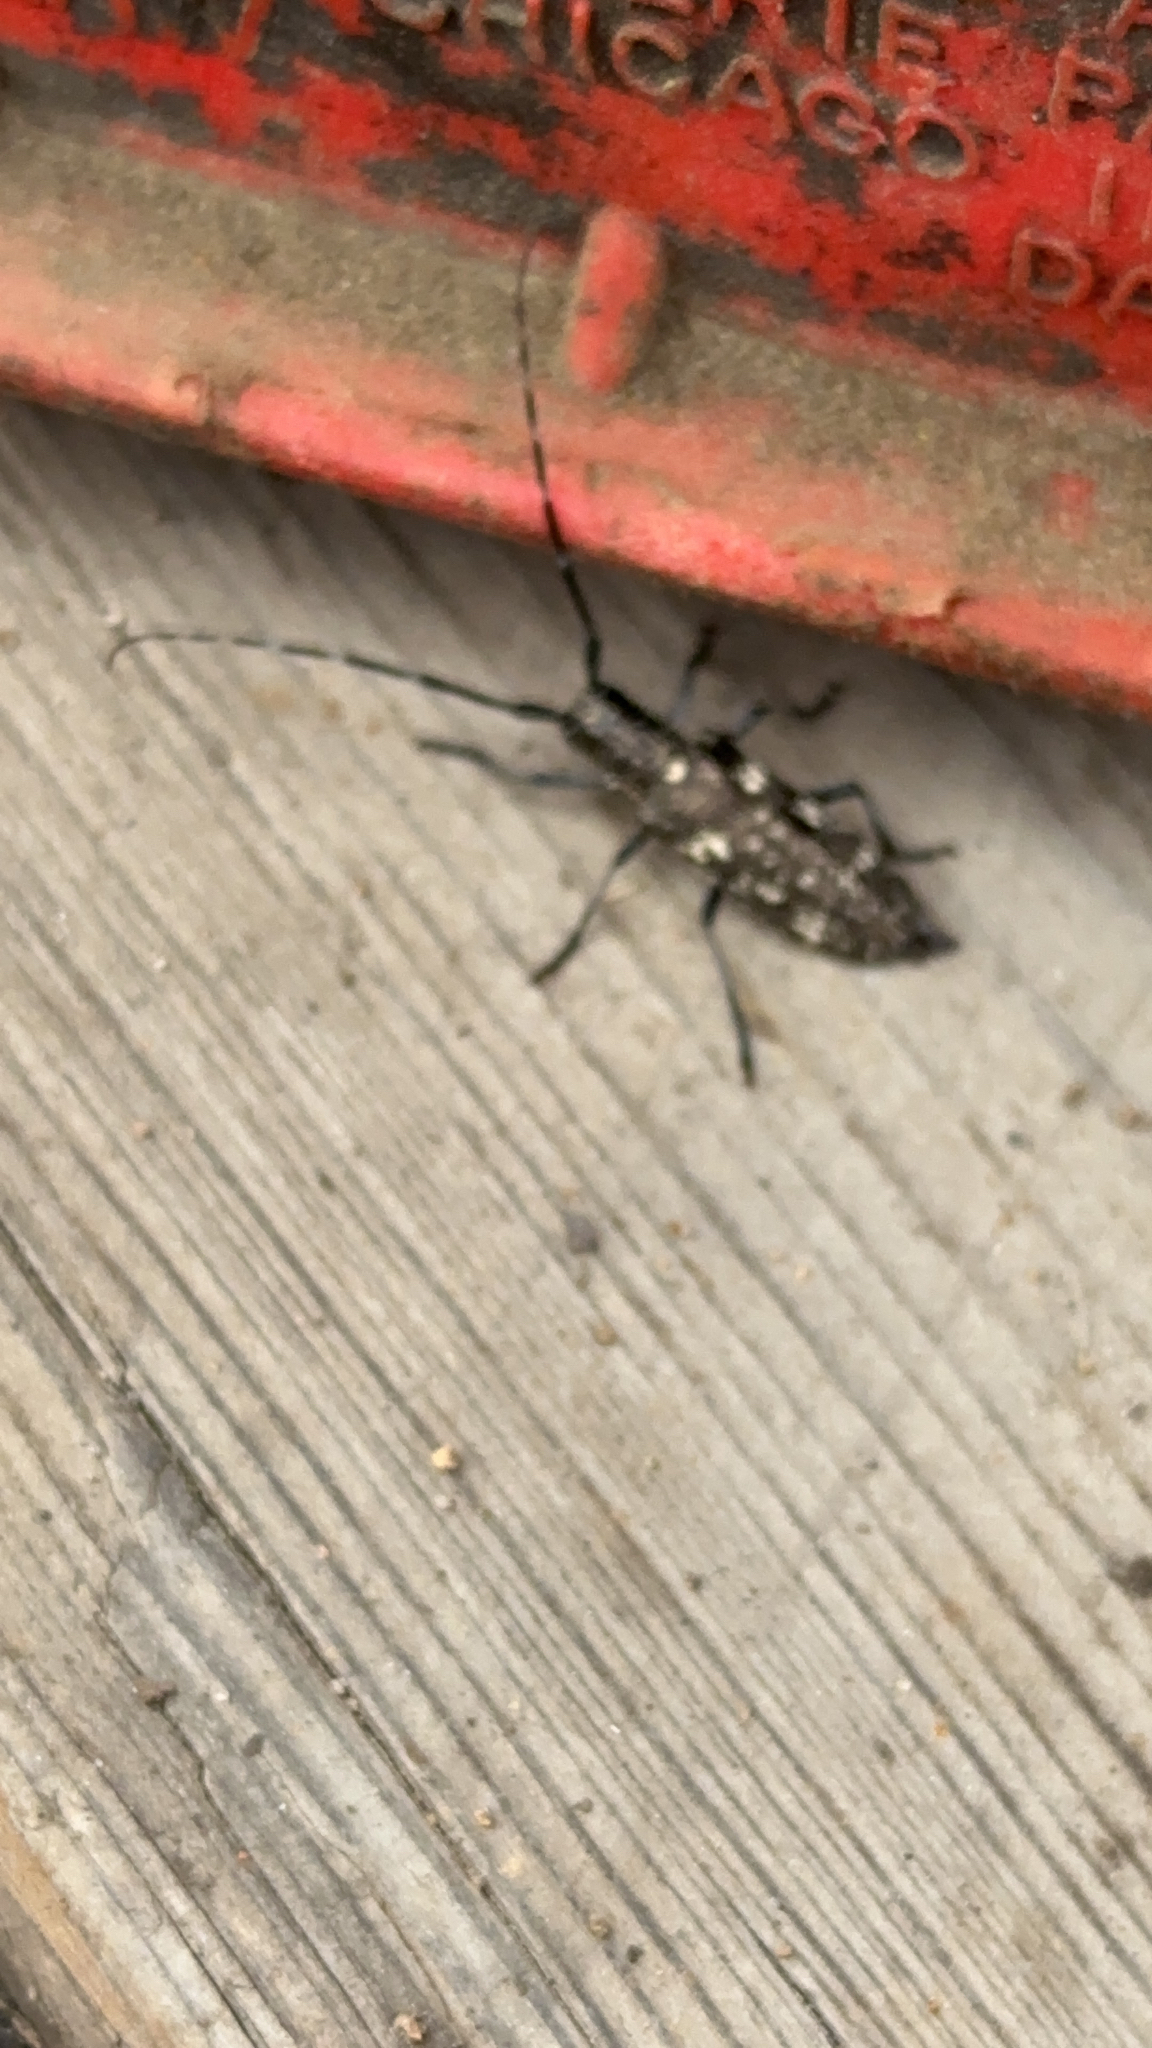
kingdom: Animalia
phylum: Arthropoda
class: Insecta
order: Coleoptera
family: Cerambycidae
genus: Monochamus
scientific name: Monochamus scutellatus
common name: White-spotted sawyer beetle
